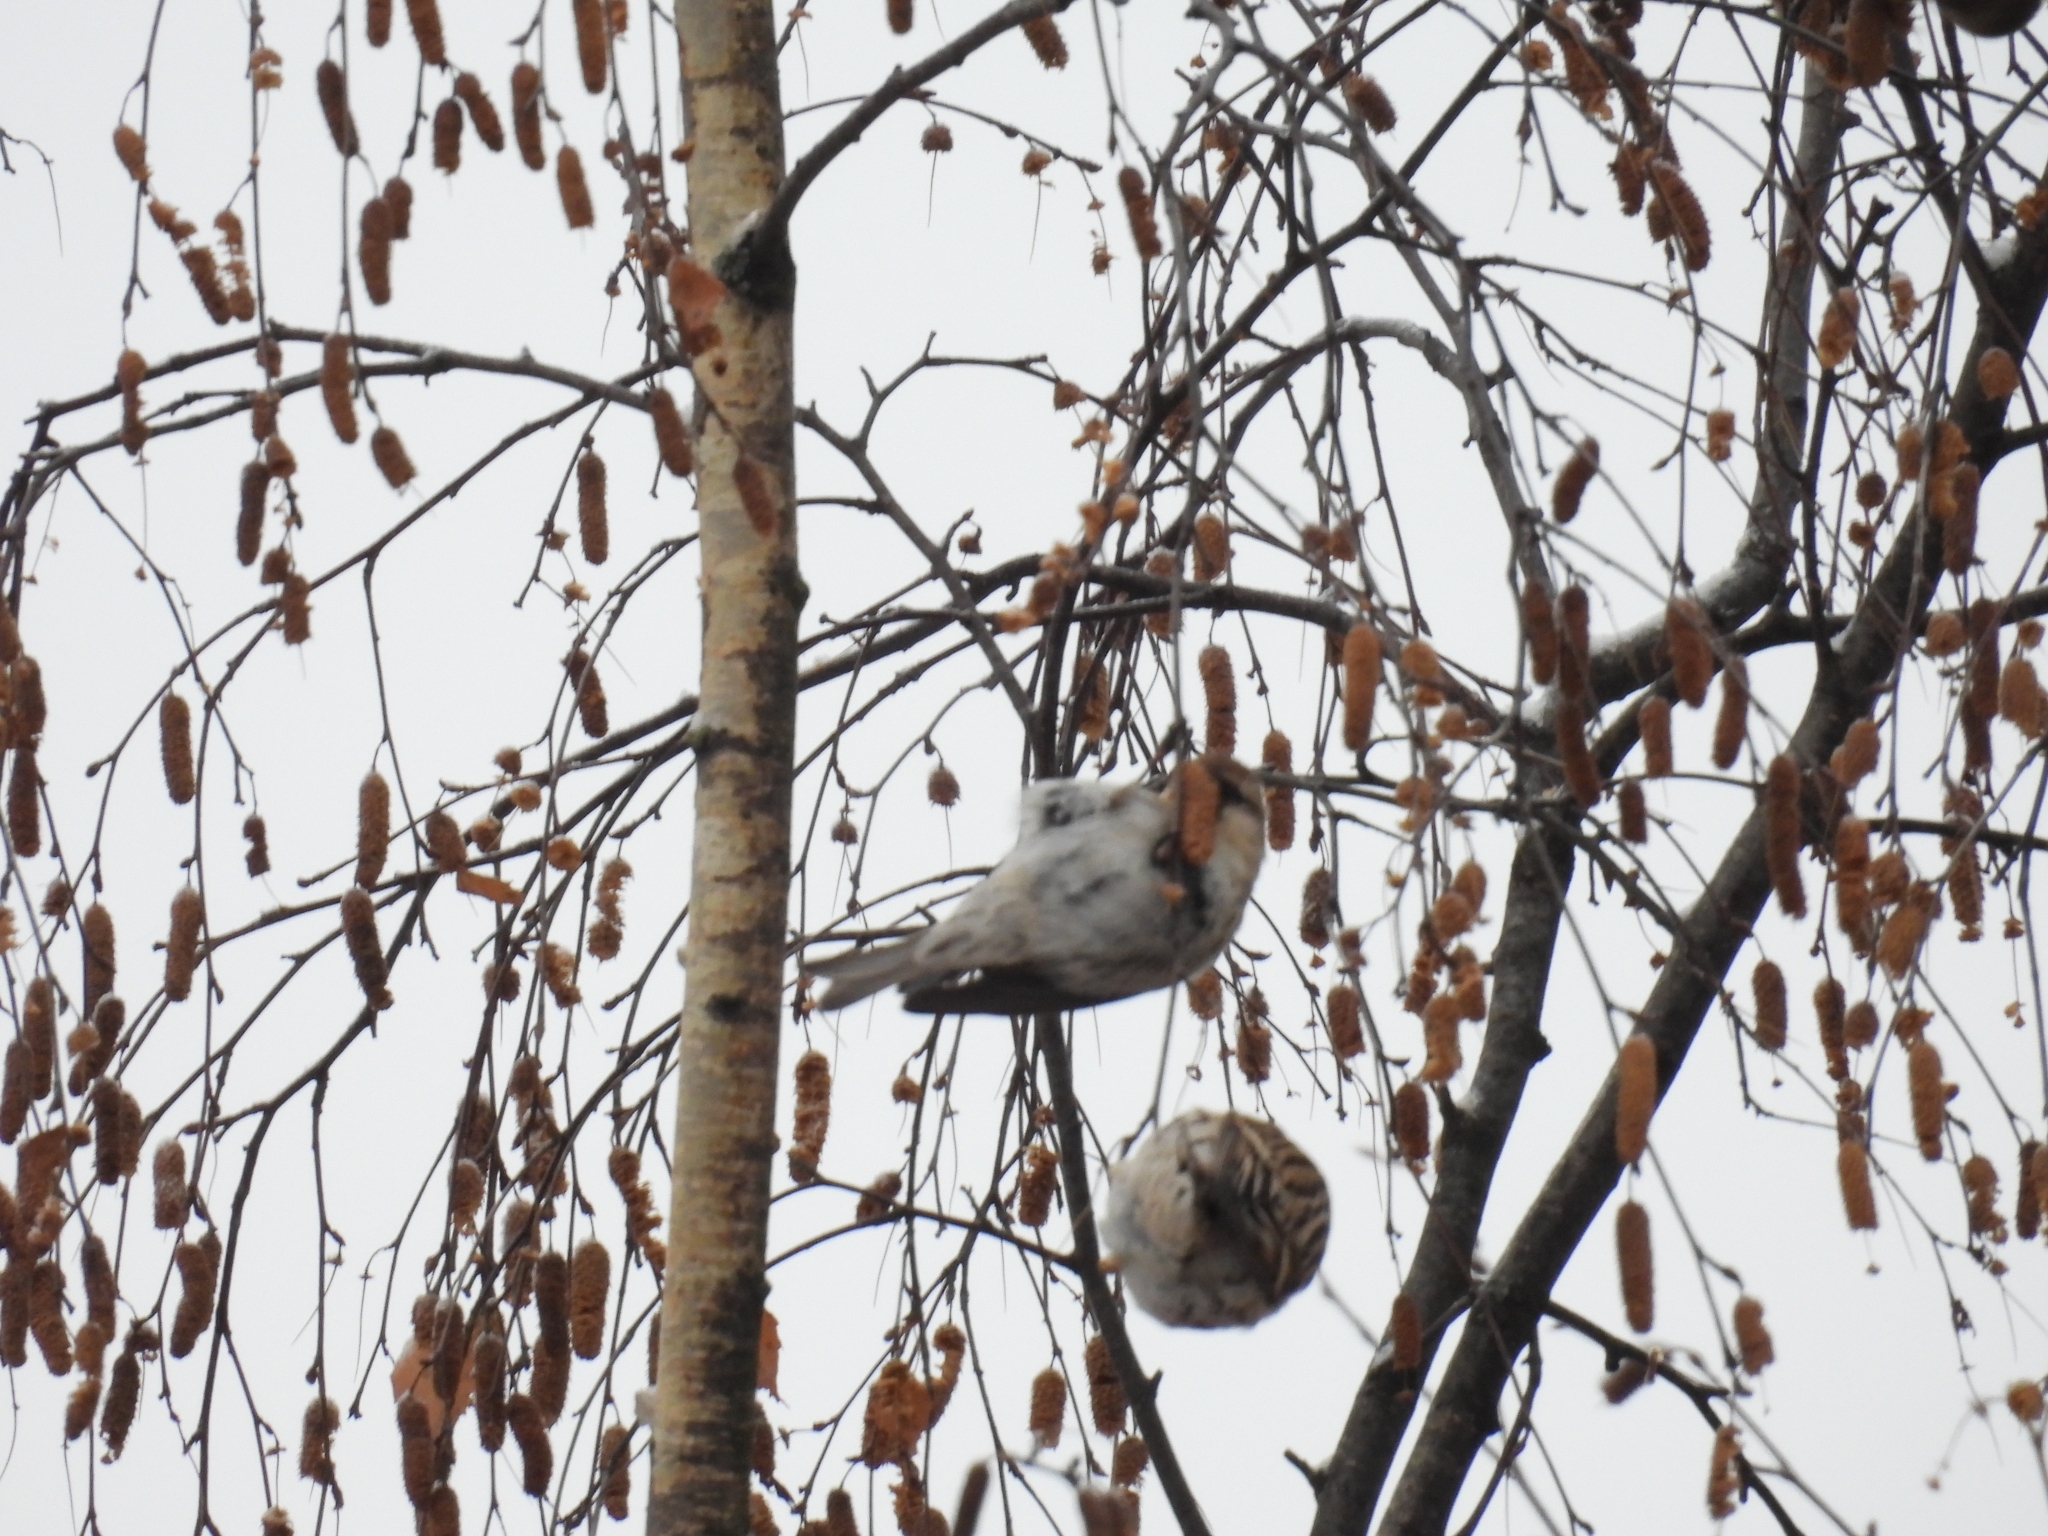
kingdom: Animalia
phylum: Chordata
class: Aves
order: Passeriformes
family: Fringillidae
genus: Acanthis
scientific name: Acanthis flammea
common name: Common redpoll
